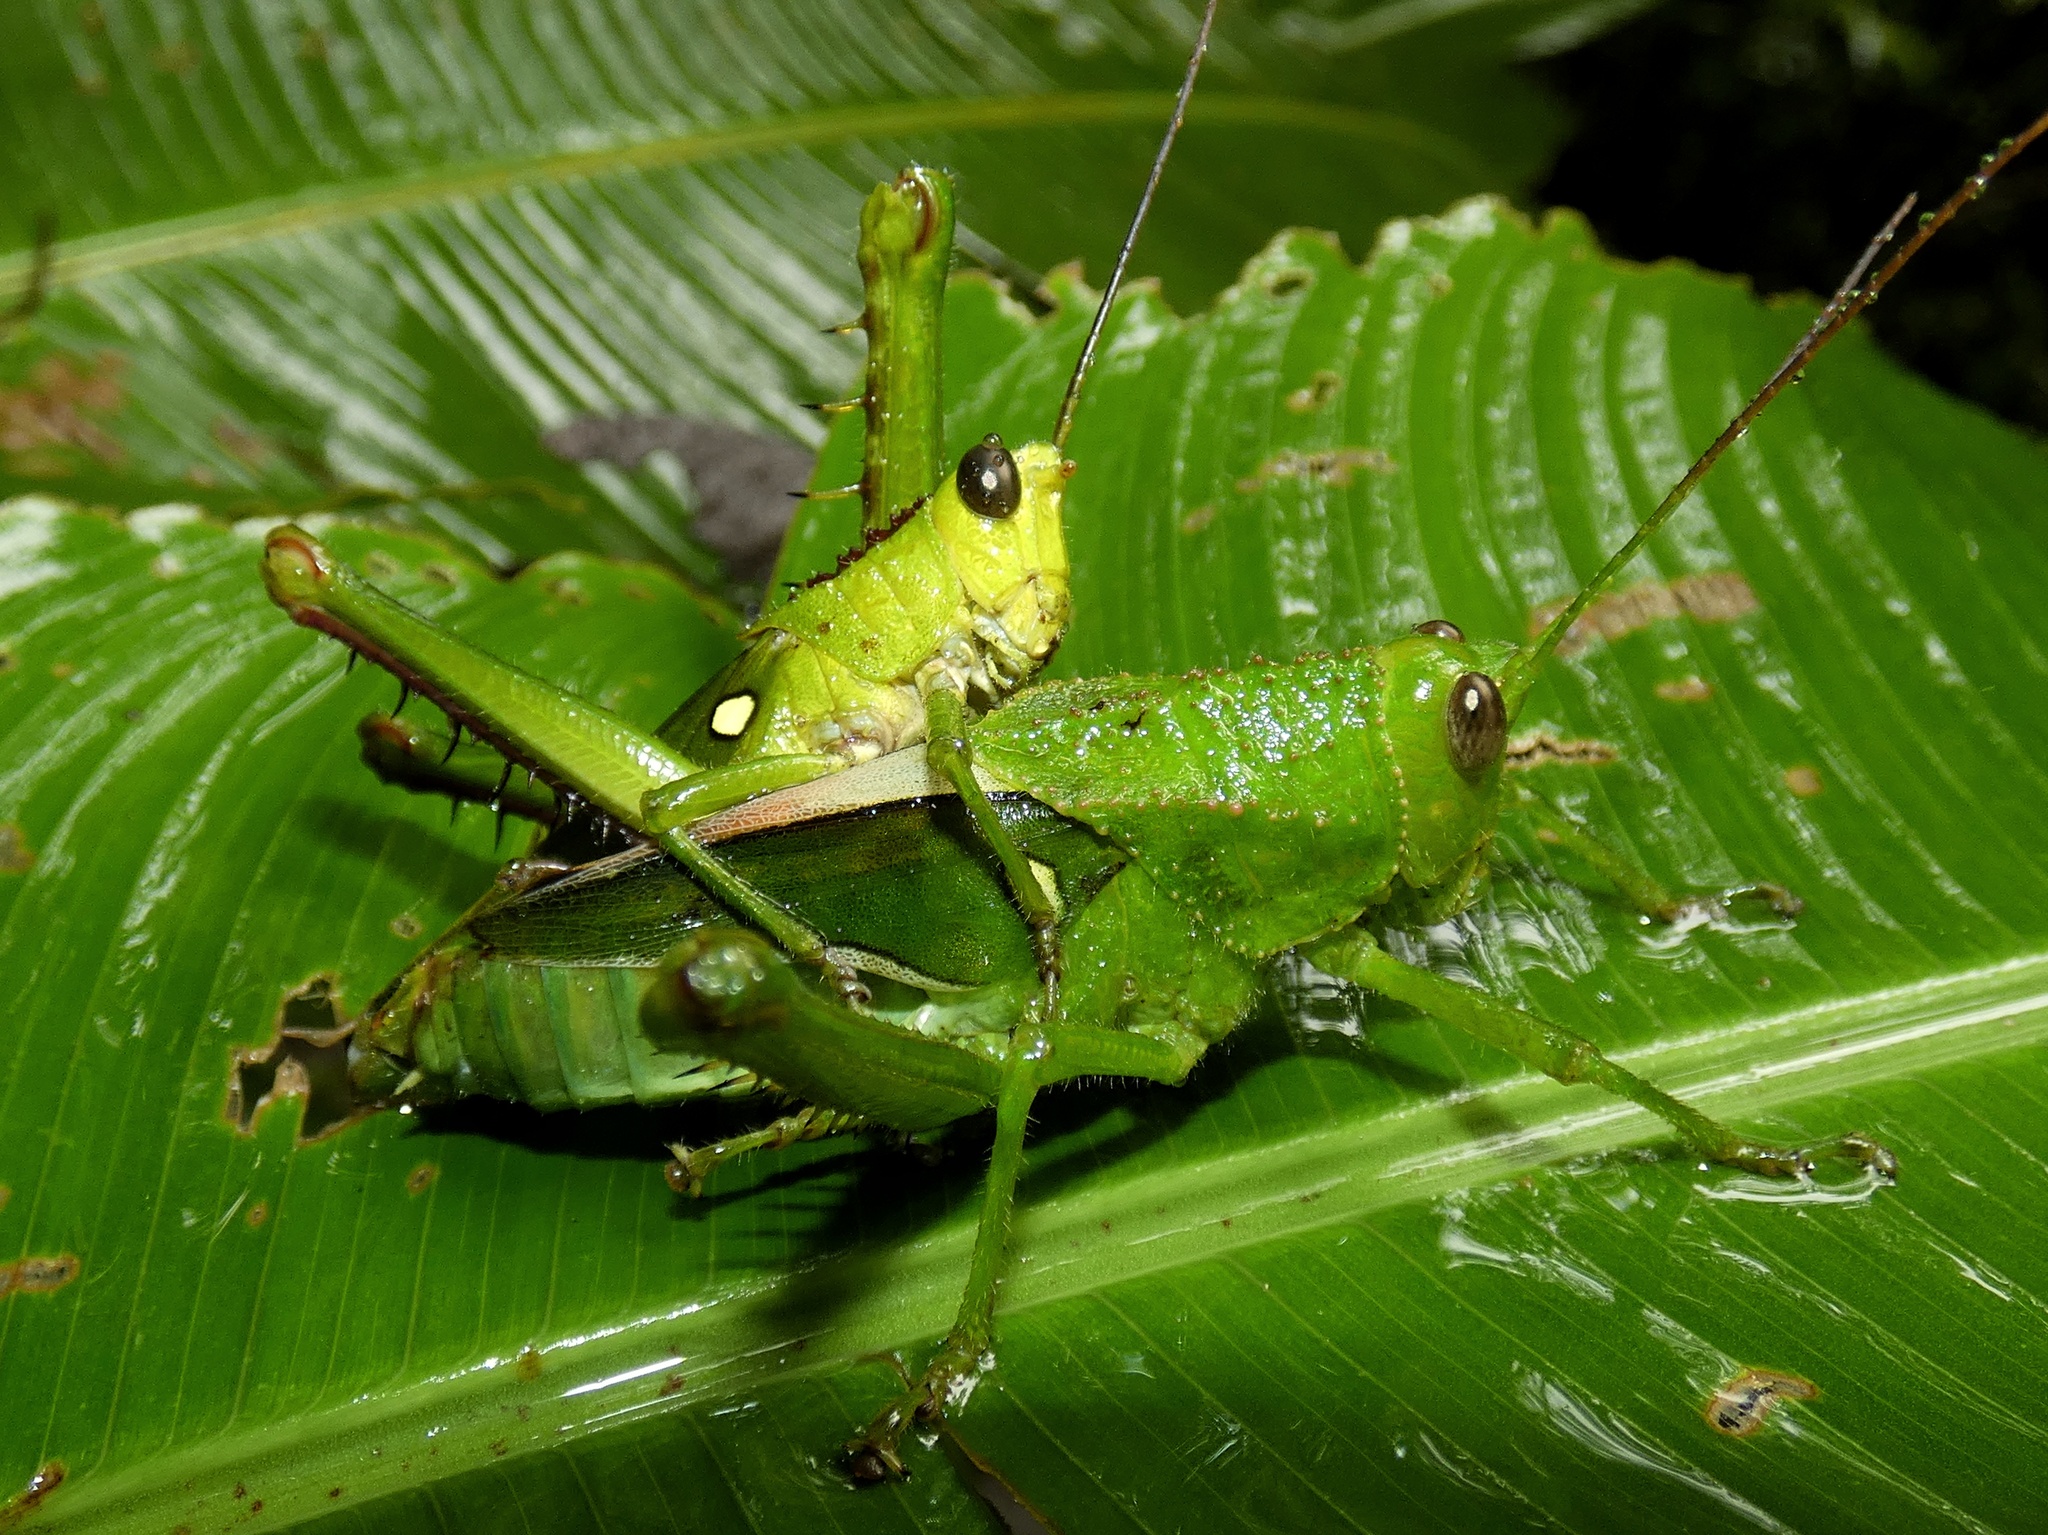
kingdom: Animalia
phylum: Arthropoda
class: Insecta
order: Orthoptera
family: Romaleidae
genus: Agriacris
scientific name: Agriacris tricristata
